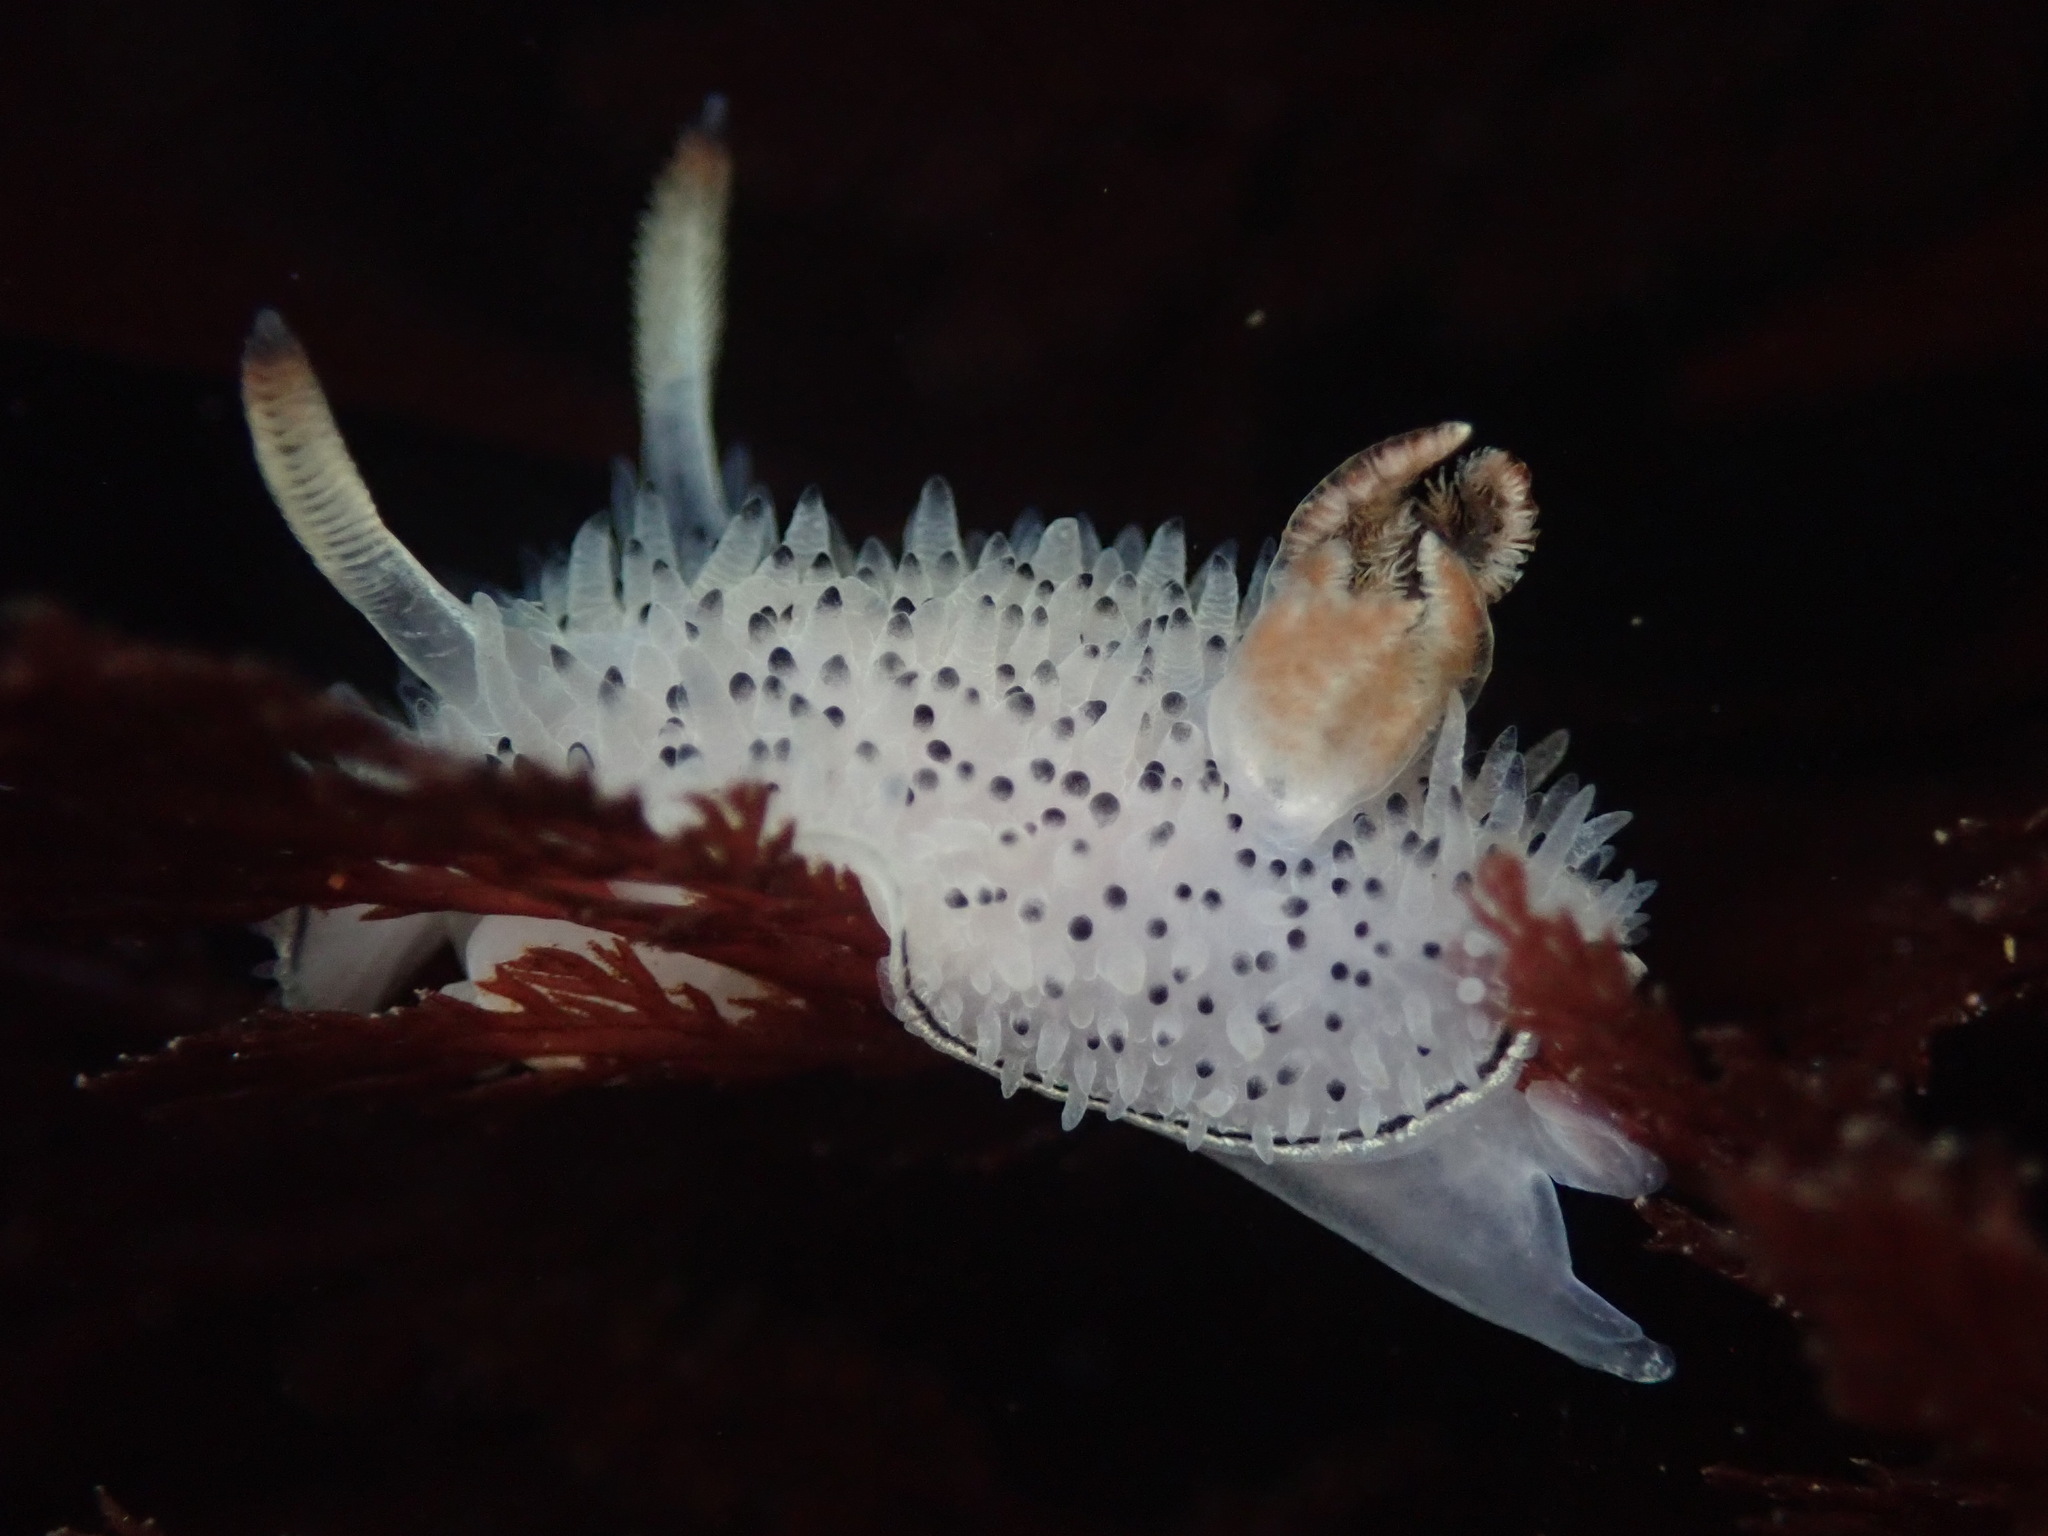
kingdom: Animalia
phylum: Mollusca
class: Gastropoda
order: Nudibranchia
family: Onchidorididae
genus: Acanthodoris
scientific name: Acanthodoris rhodoceras
